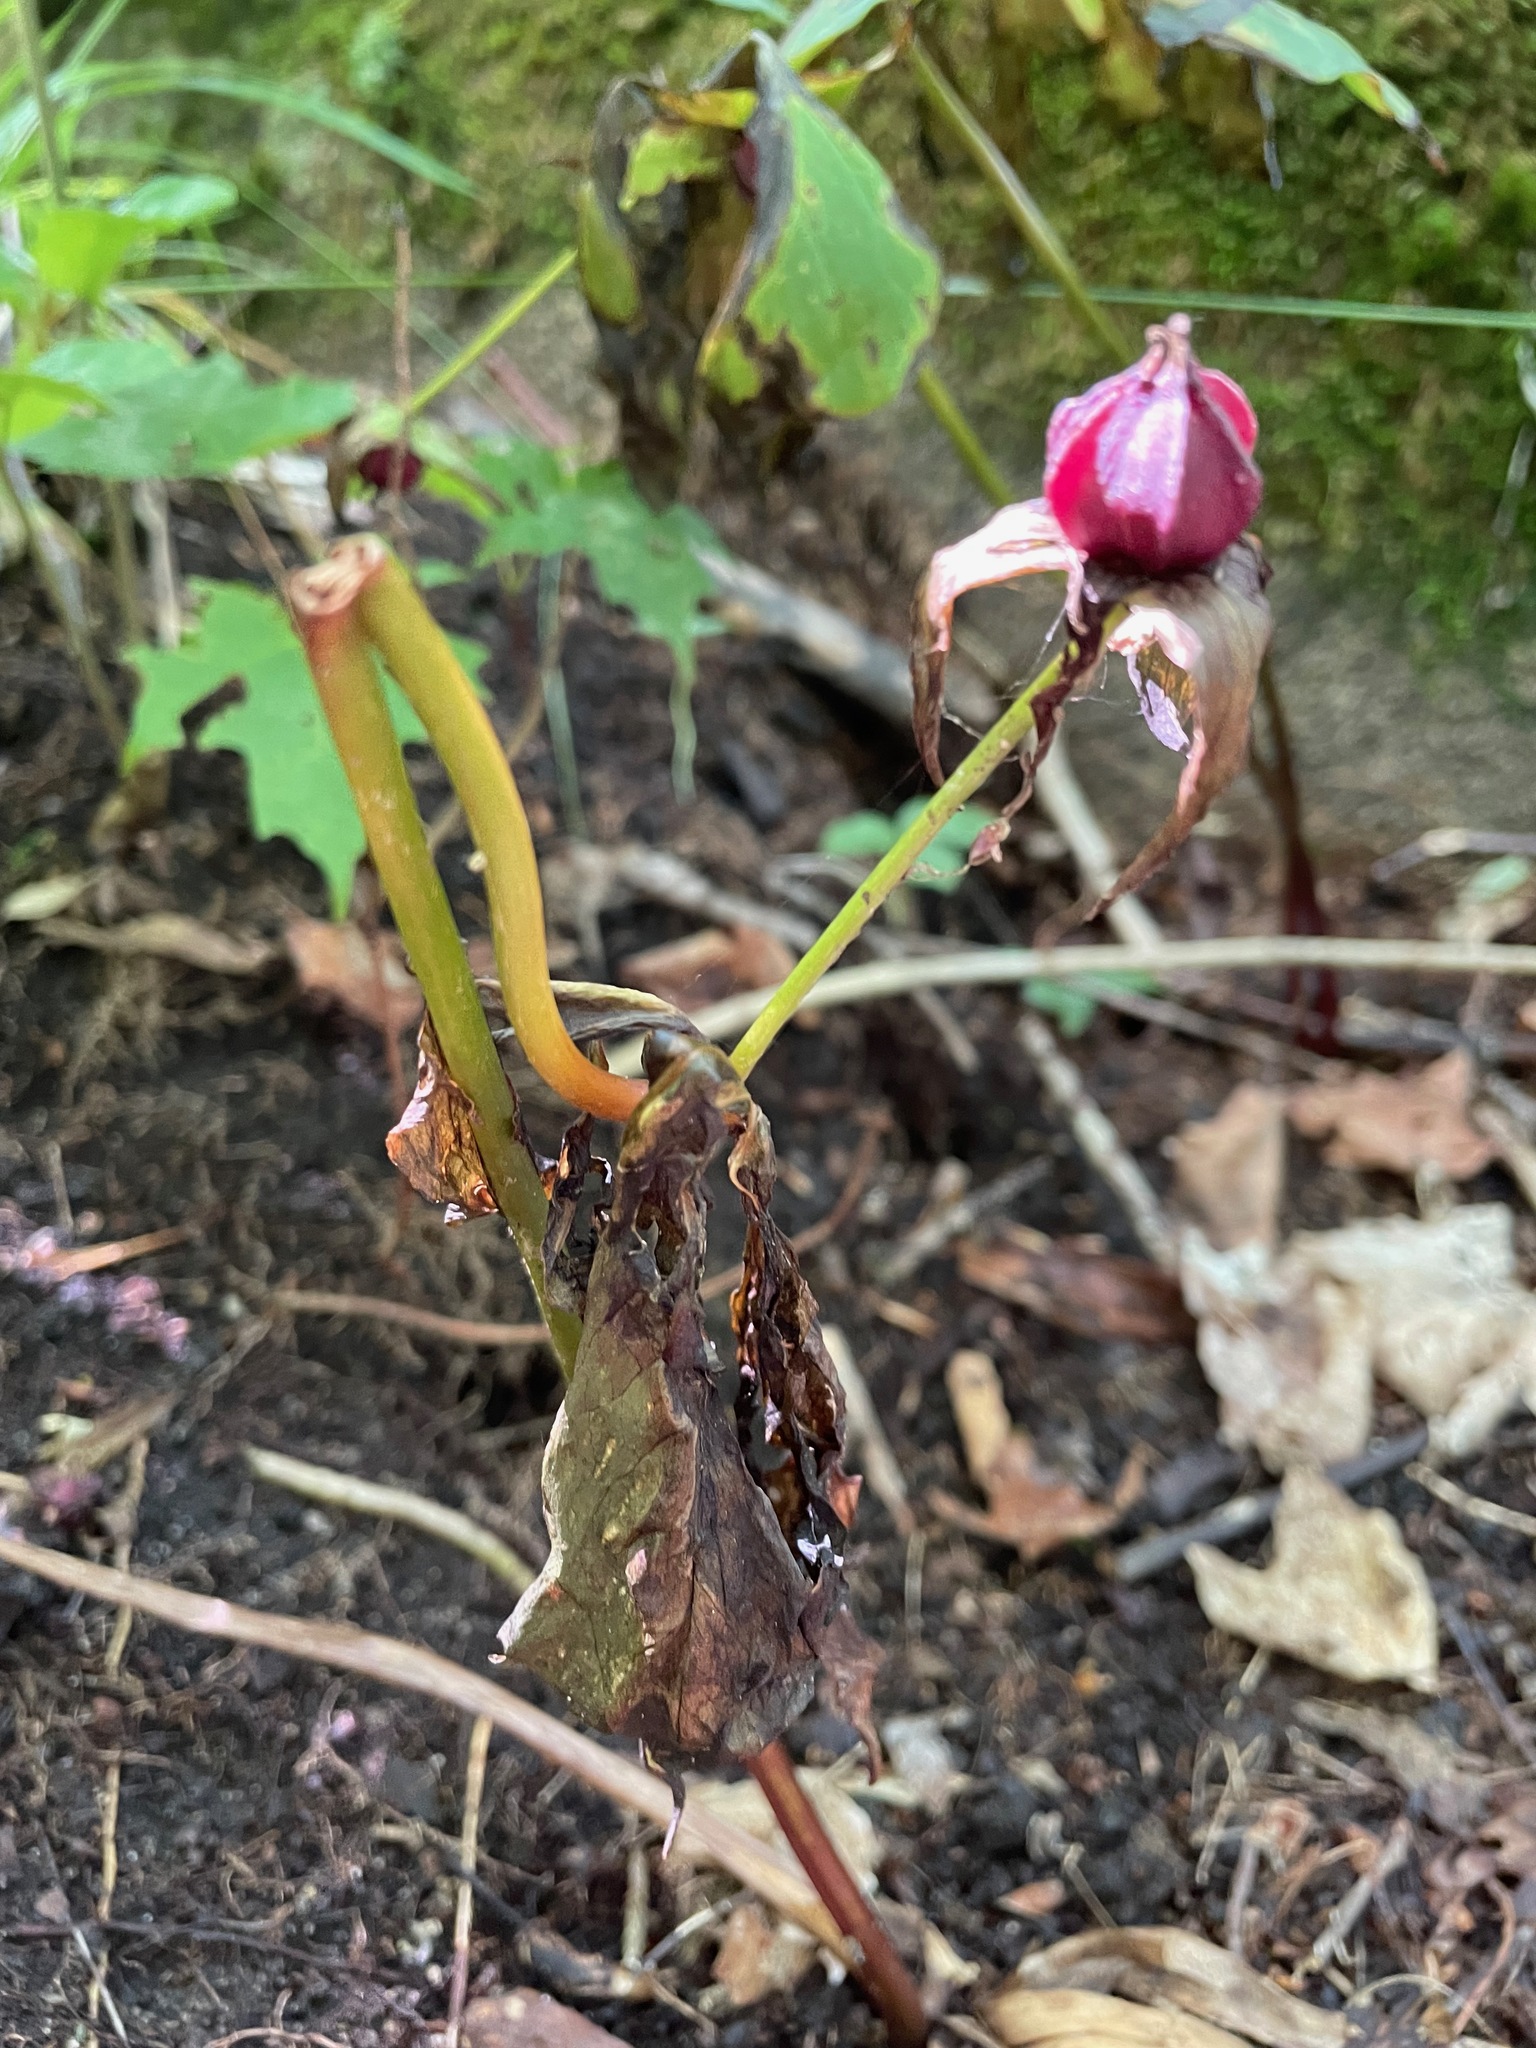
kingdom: Plantae
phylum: Tracheophyta
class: Liliopsida
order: Liliales
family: Melanthiaceae
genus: Trillium
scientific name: Trillium erectum
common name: Purple trillium
